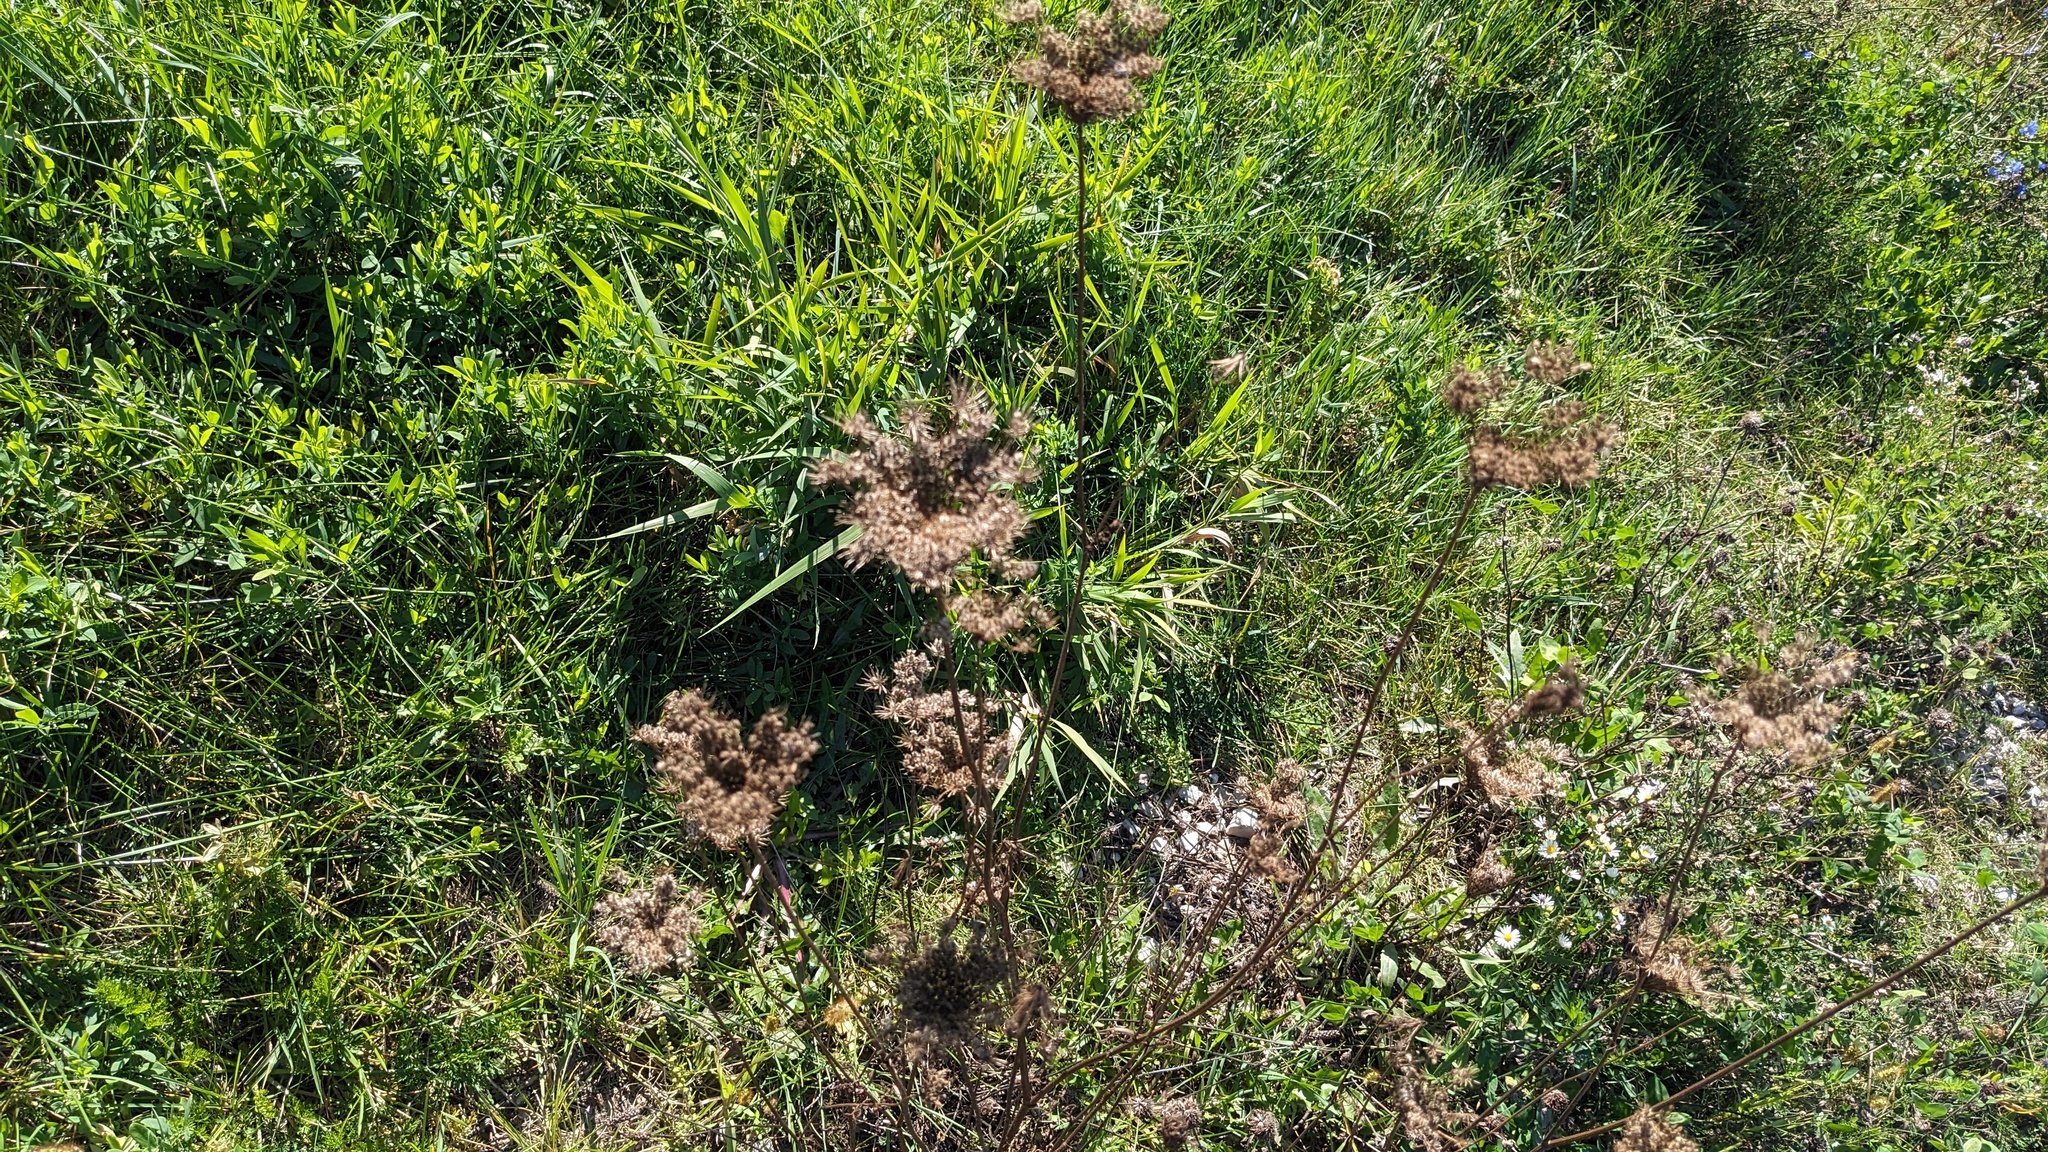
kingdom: Plantae
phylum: Tracheophyta
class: Magnoliopsida
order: Apiales
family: Apiaceae
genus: Daucus
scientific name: Daucus carota
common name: Wild carrot
